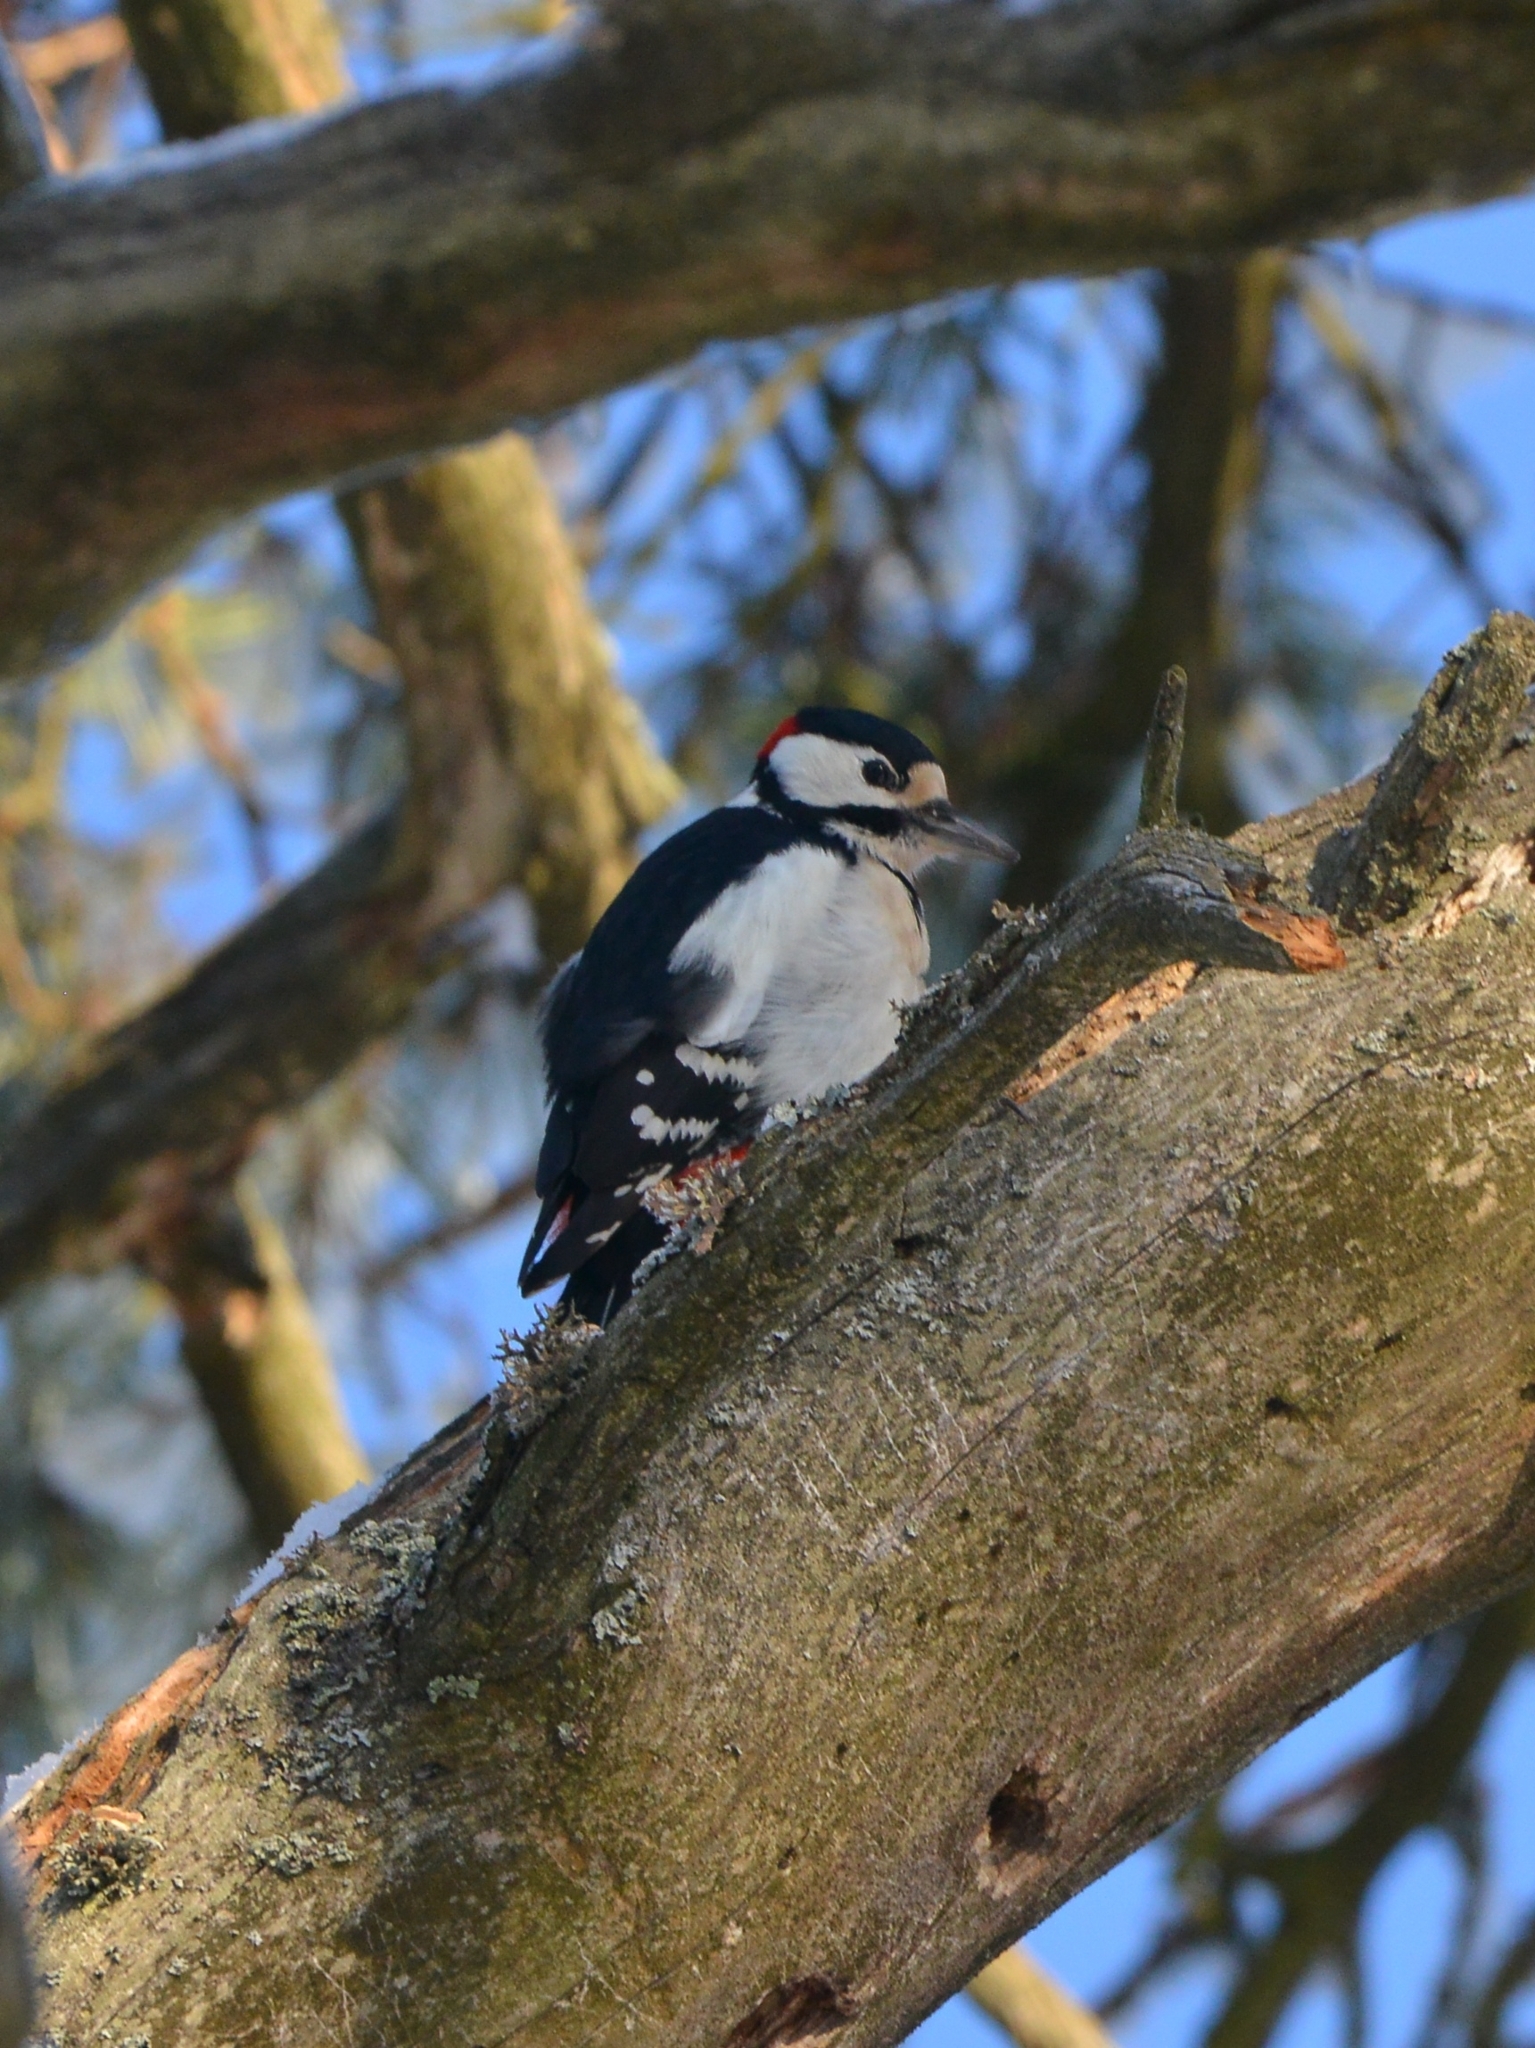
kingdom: Animalia
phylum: Chordata
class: Aves
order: Piciformes
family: Picidae
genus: Dendrocopos
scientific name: Dendrocopos major
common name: Great spotted woodpecker
